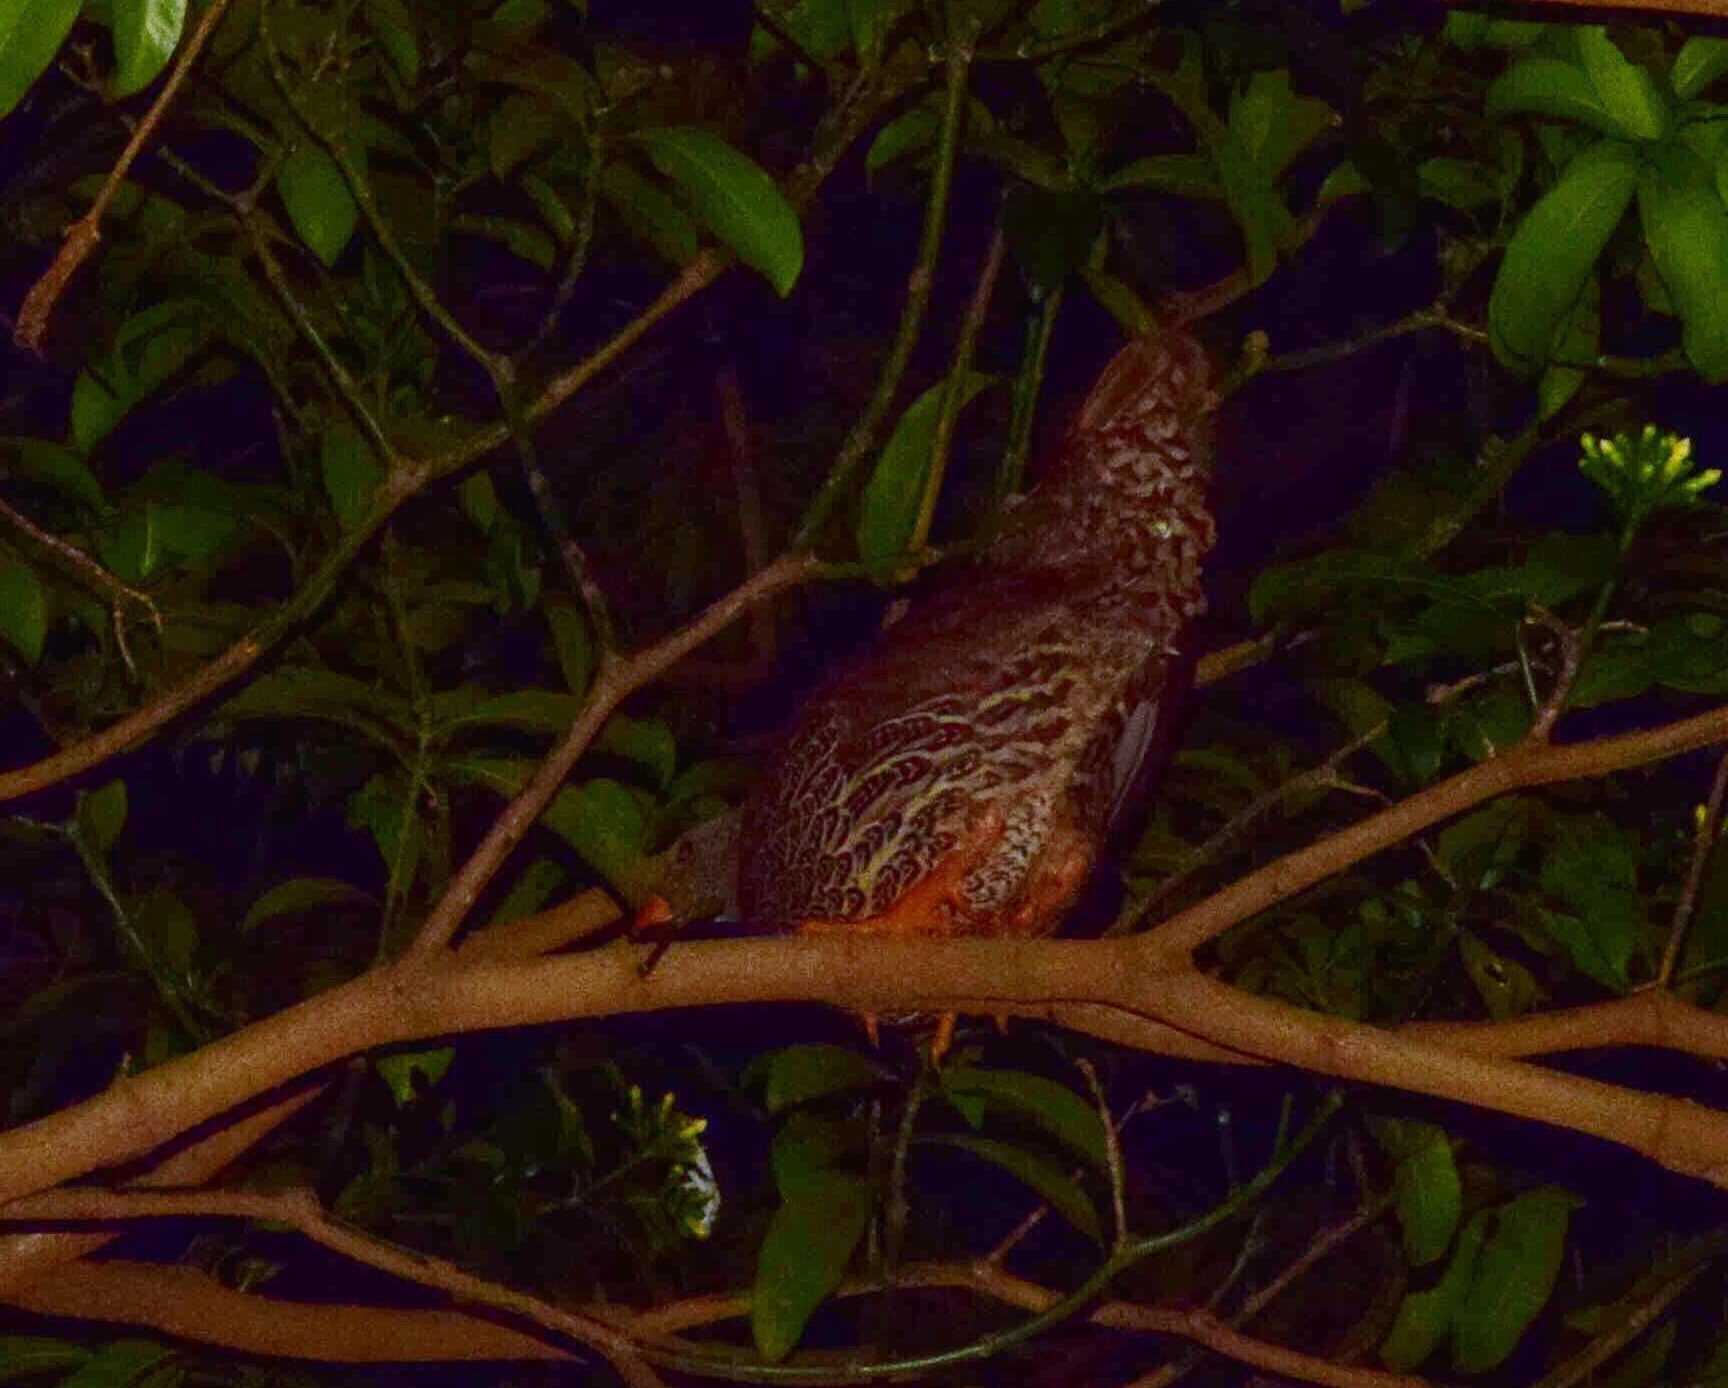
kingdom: Animalia
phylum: Chordata
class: Aves
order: Galliformes
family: Phasianidae
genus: Pternistis
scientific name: Pternistis natalensis
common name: Natal spurfowl
